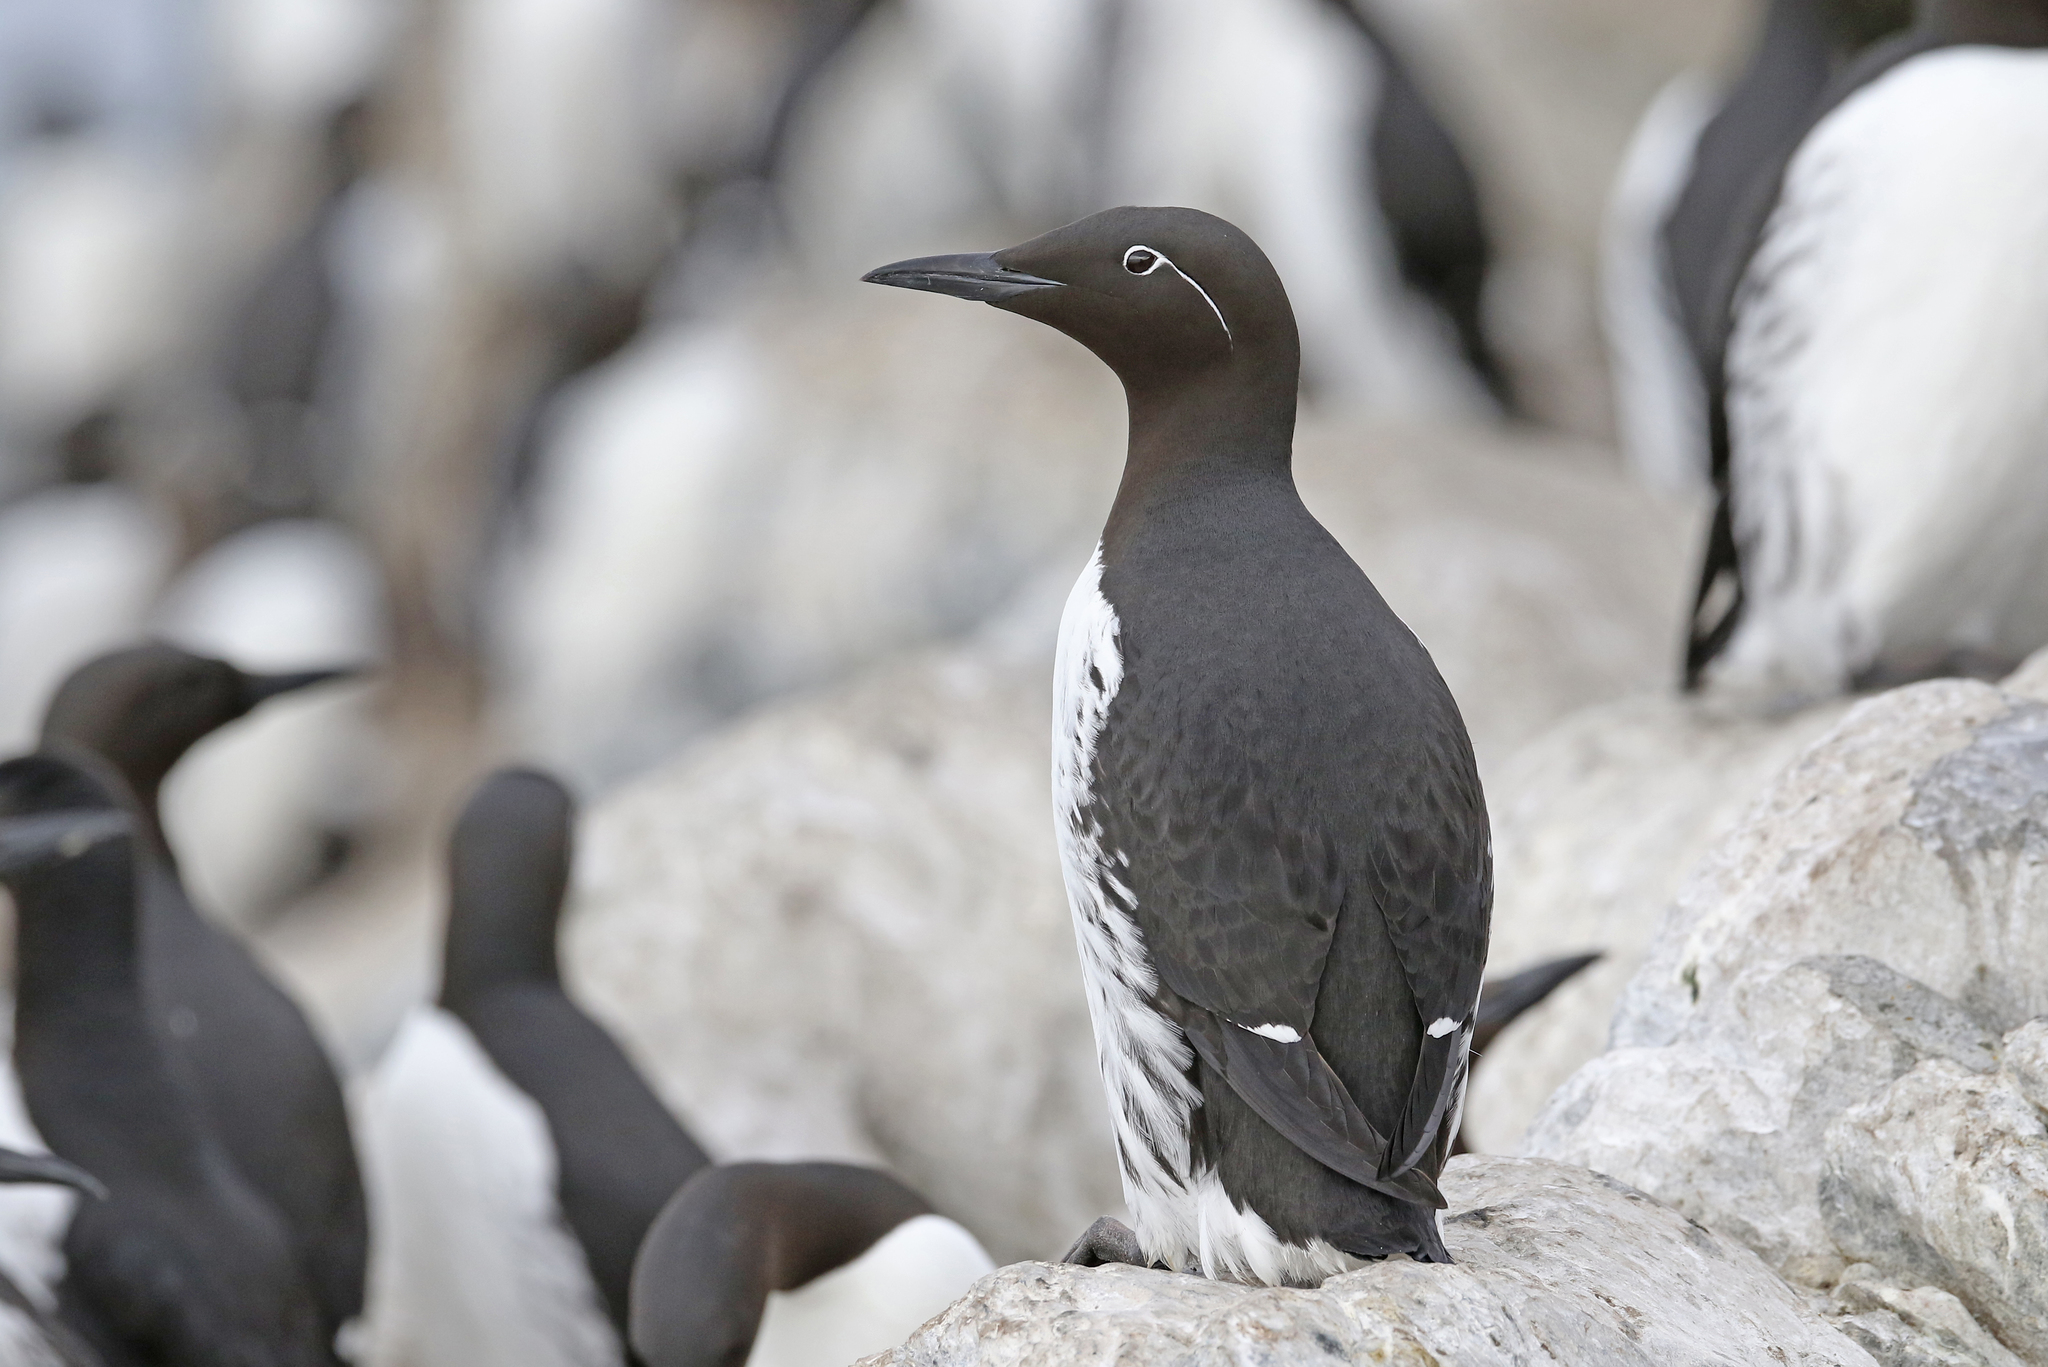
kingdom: Animalia
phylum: Chordata
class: Aves
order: Charadriiformes
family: Alcidae
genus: Uria
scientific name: Uria aalge
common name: Common murre
